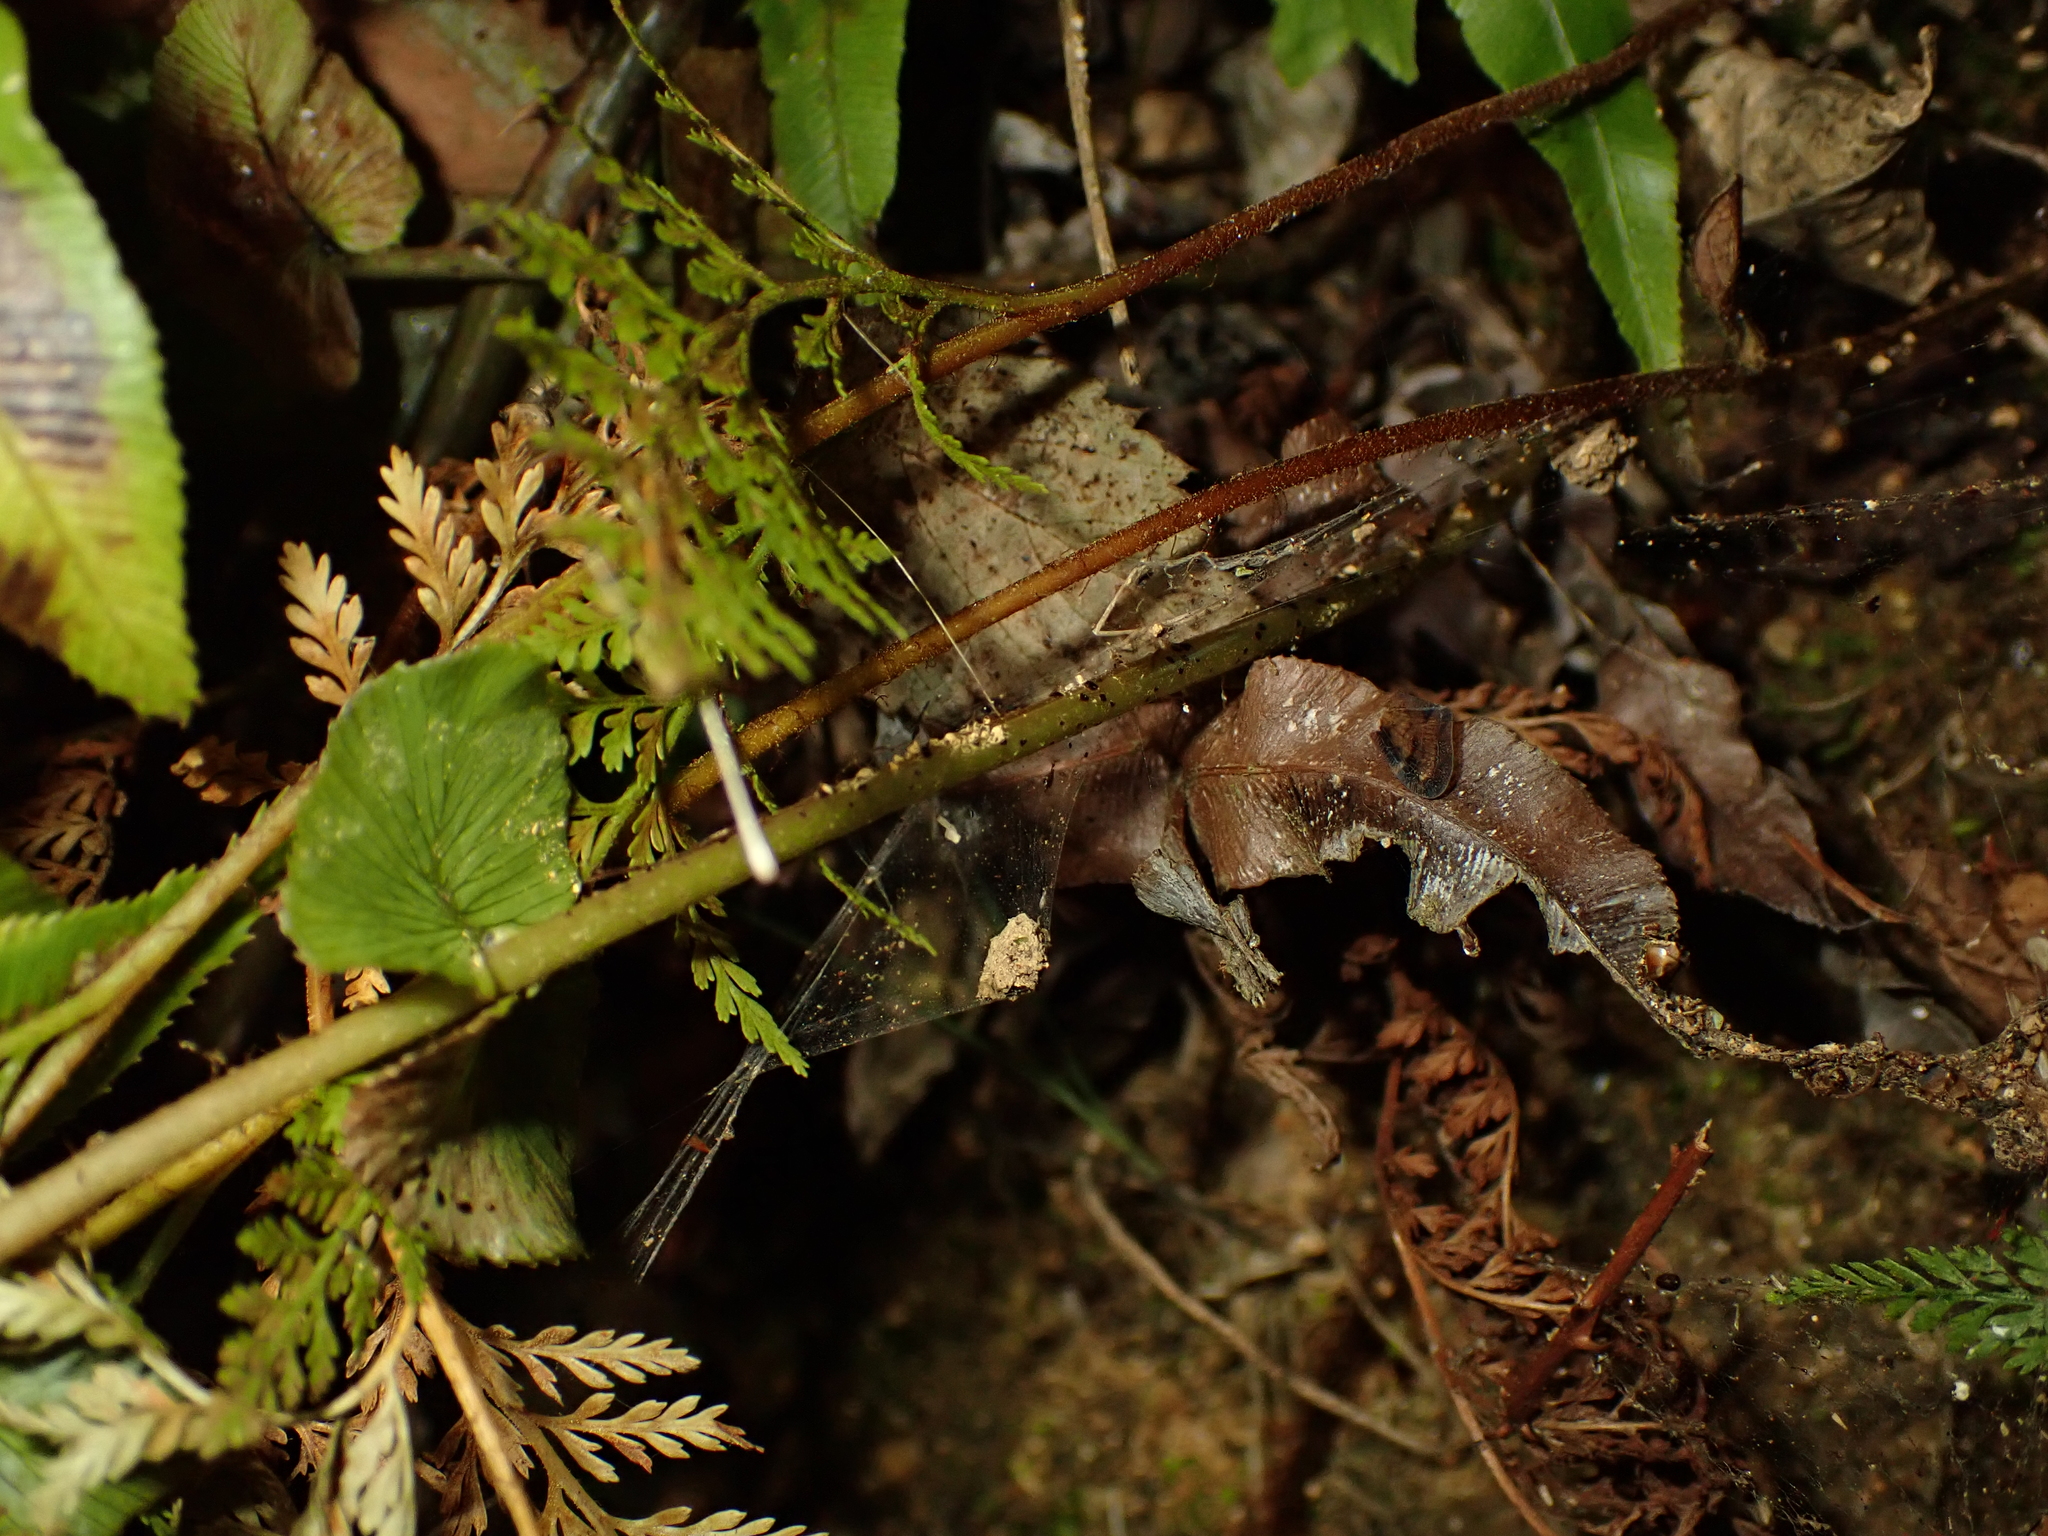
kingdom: Plantae
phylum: Tracheophyta
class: Polypodiopsida
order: Polypodiales
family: Blechnaceae
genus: Parablechnum
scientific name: Parablechnum novae-zelandiae
